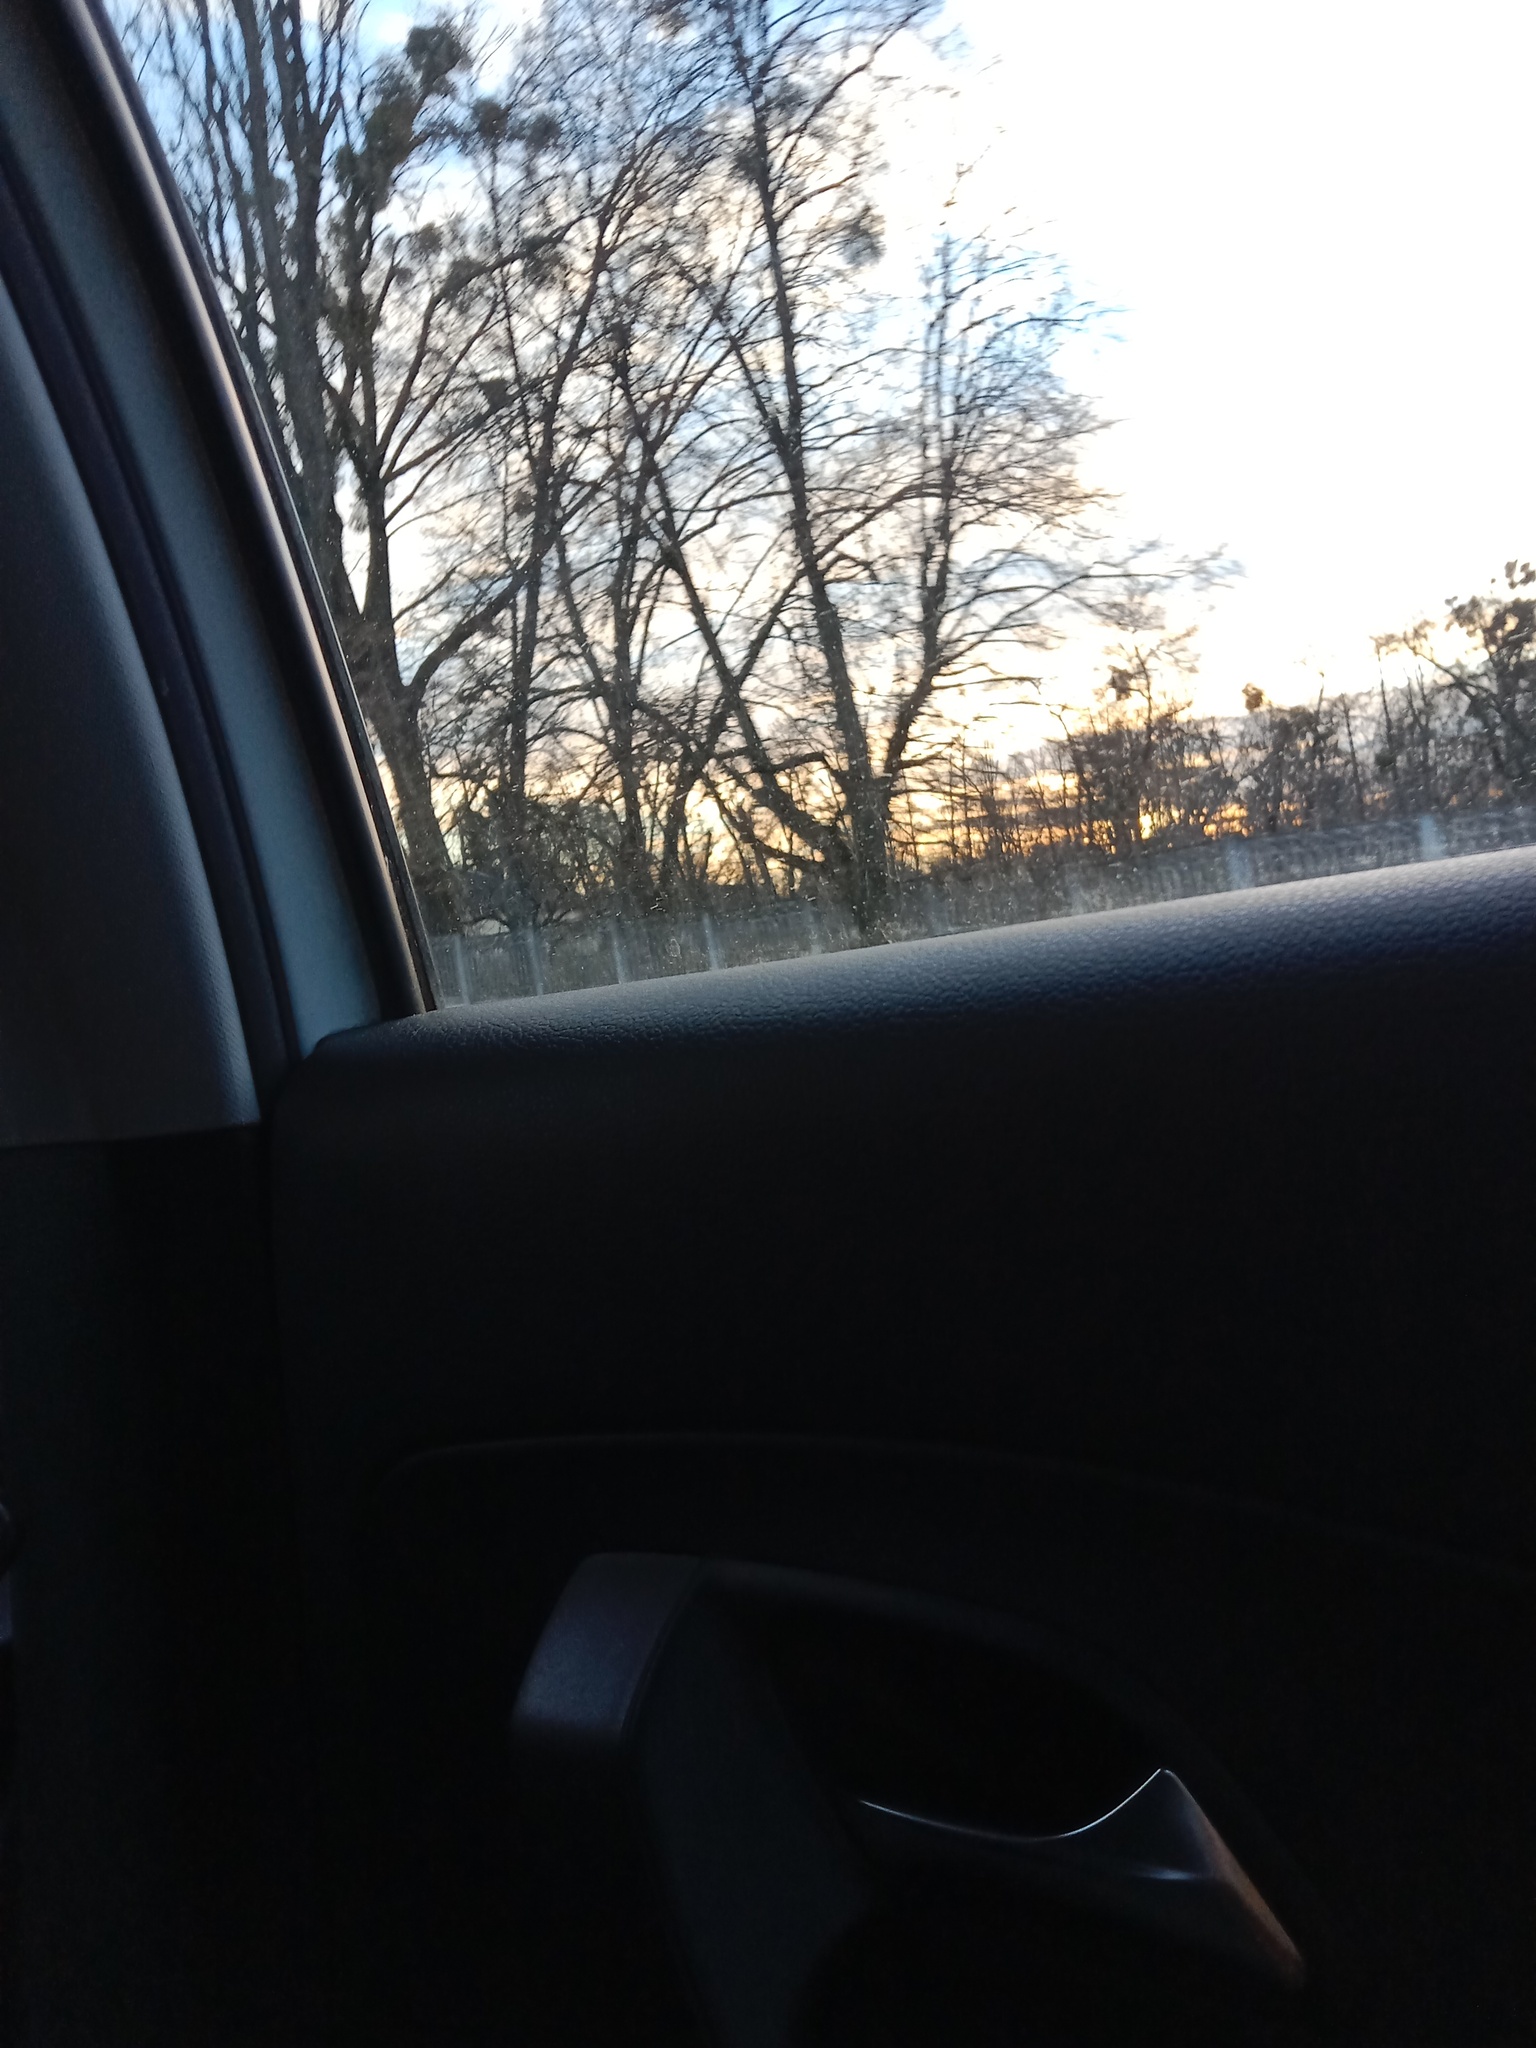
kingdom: Plantae
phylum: Tracheophyta
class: Magnoliopsida
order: Santalales
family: Viscaceae
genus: Viscum
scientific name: Viscum album
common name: Mistletoe
